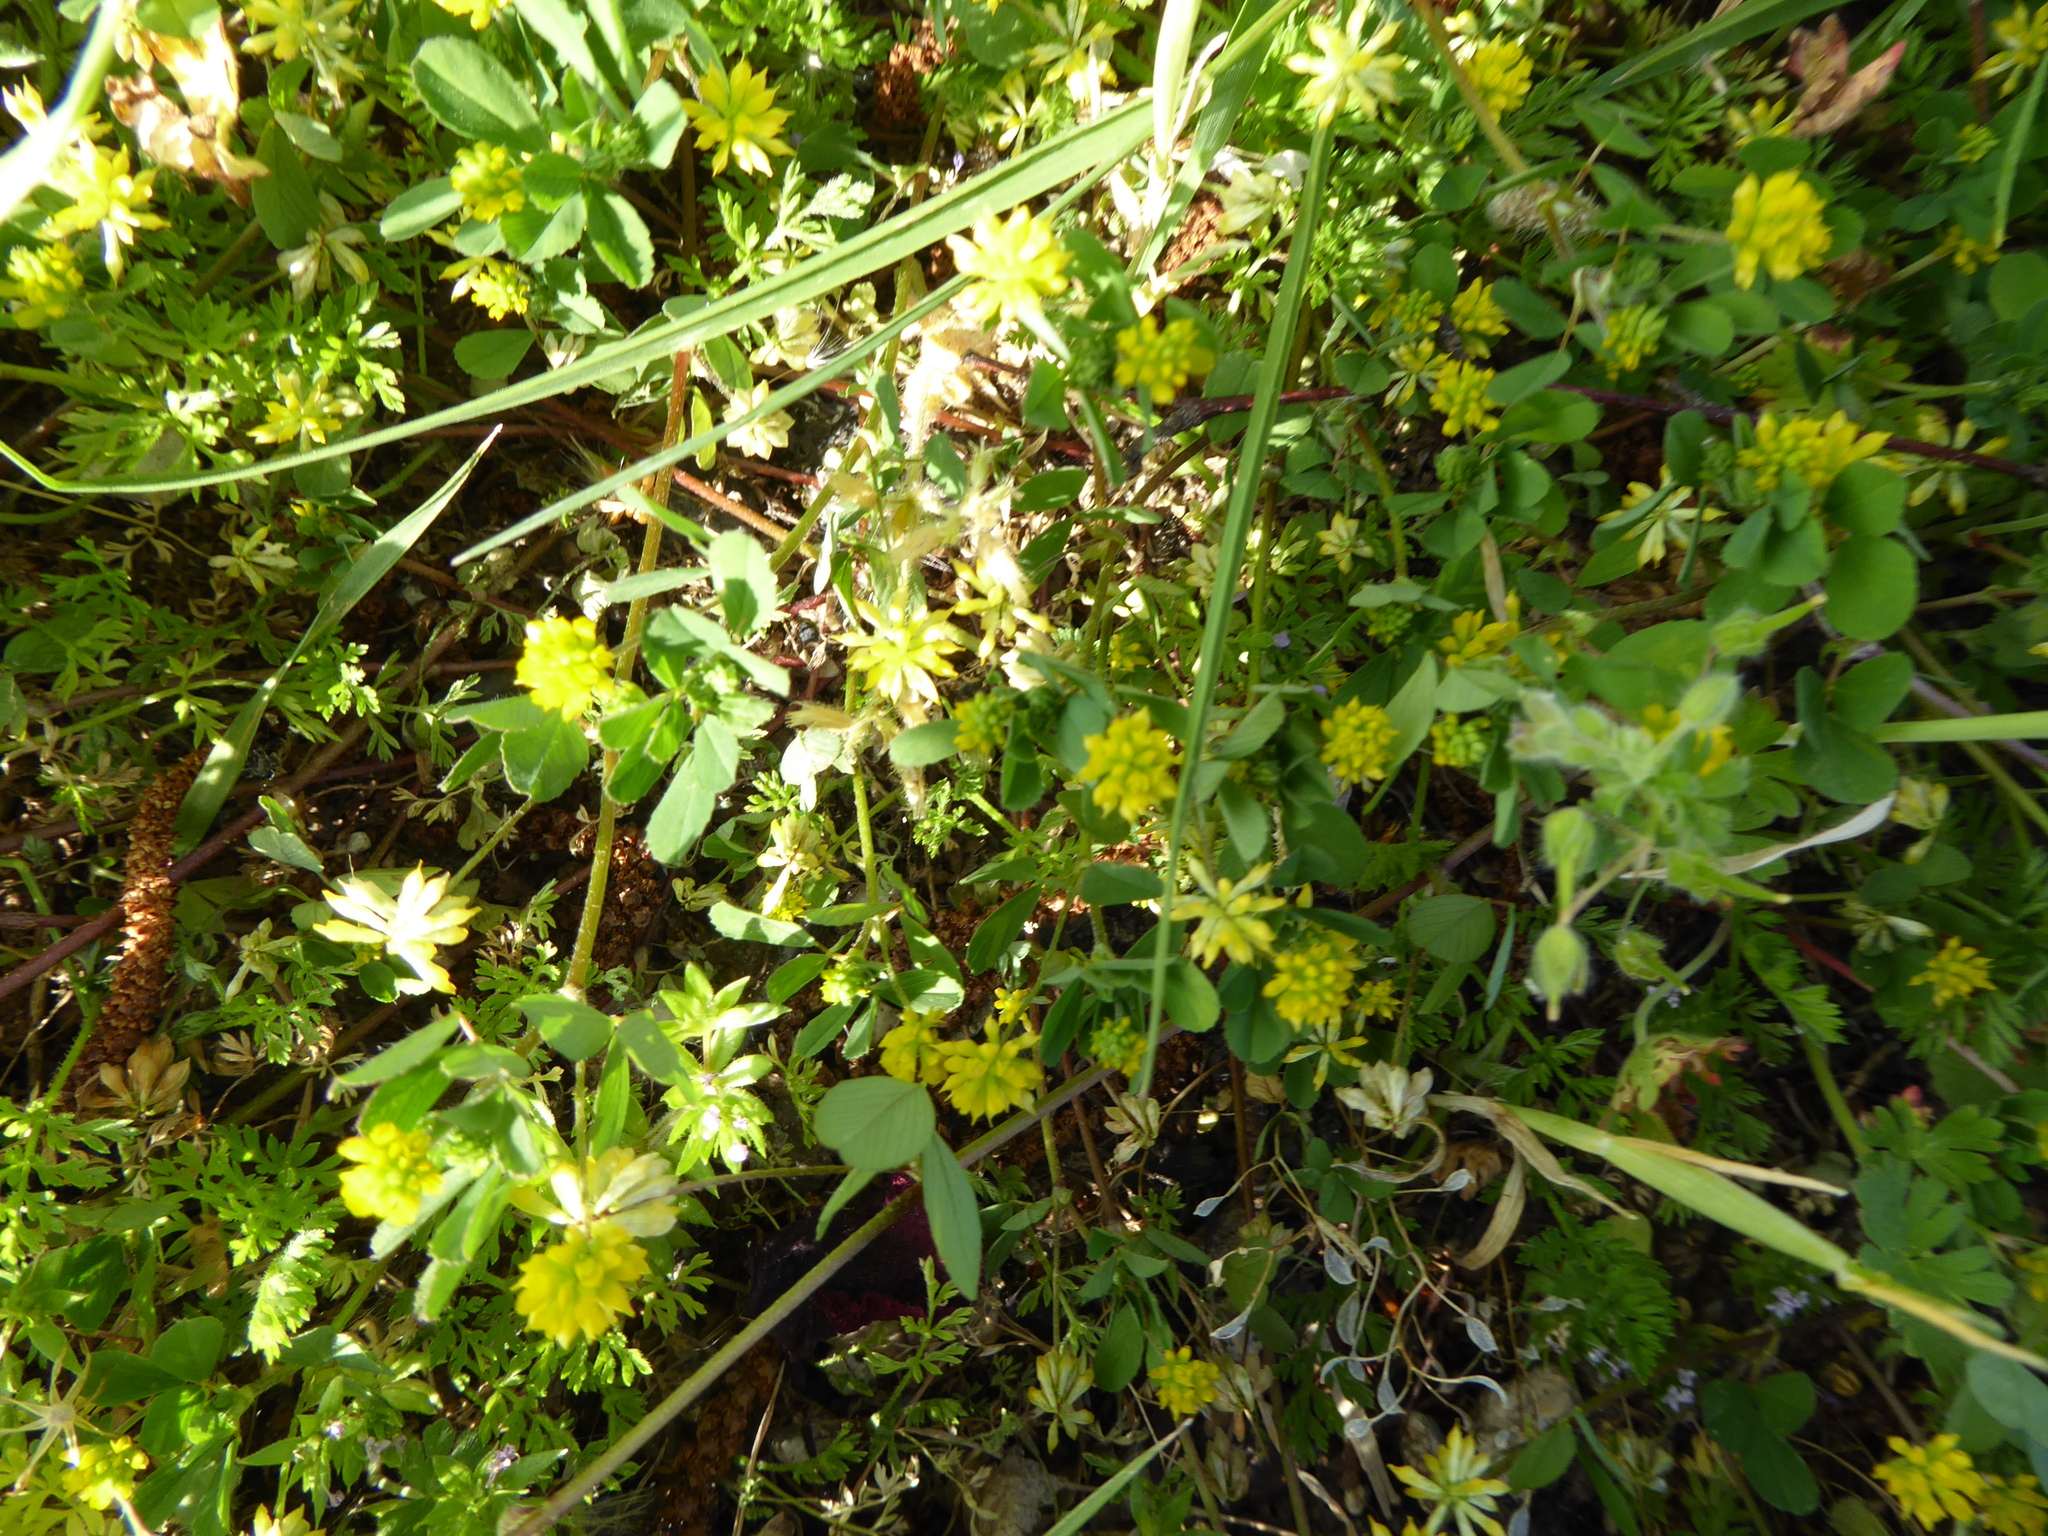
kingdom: Plantae
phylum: Tracheophyta
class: Magnoliopsida
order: Fabales
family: Fabaceae
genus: Trifolium
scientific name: Trifolium dubium
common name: Suckling clover
